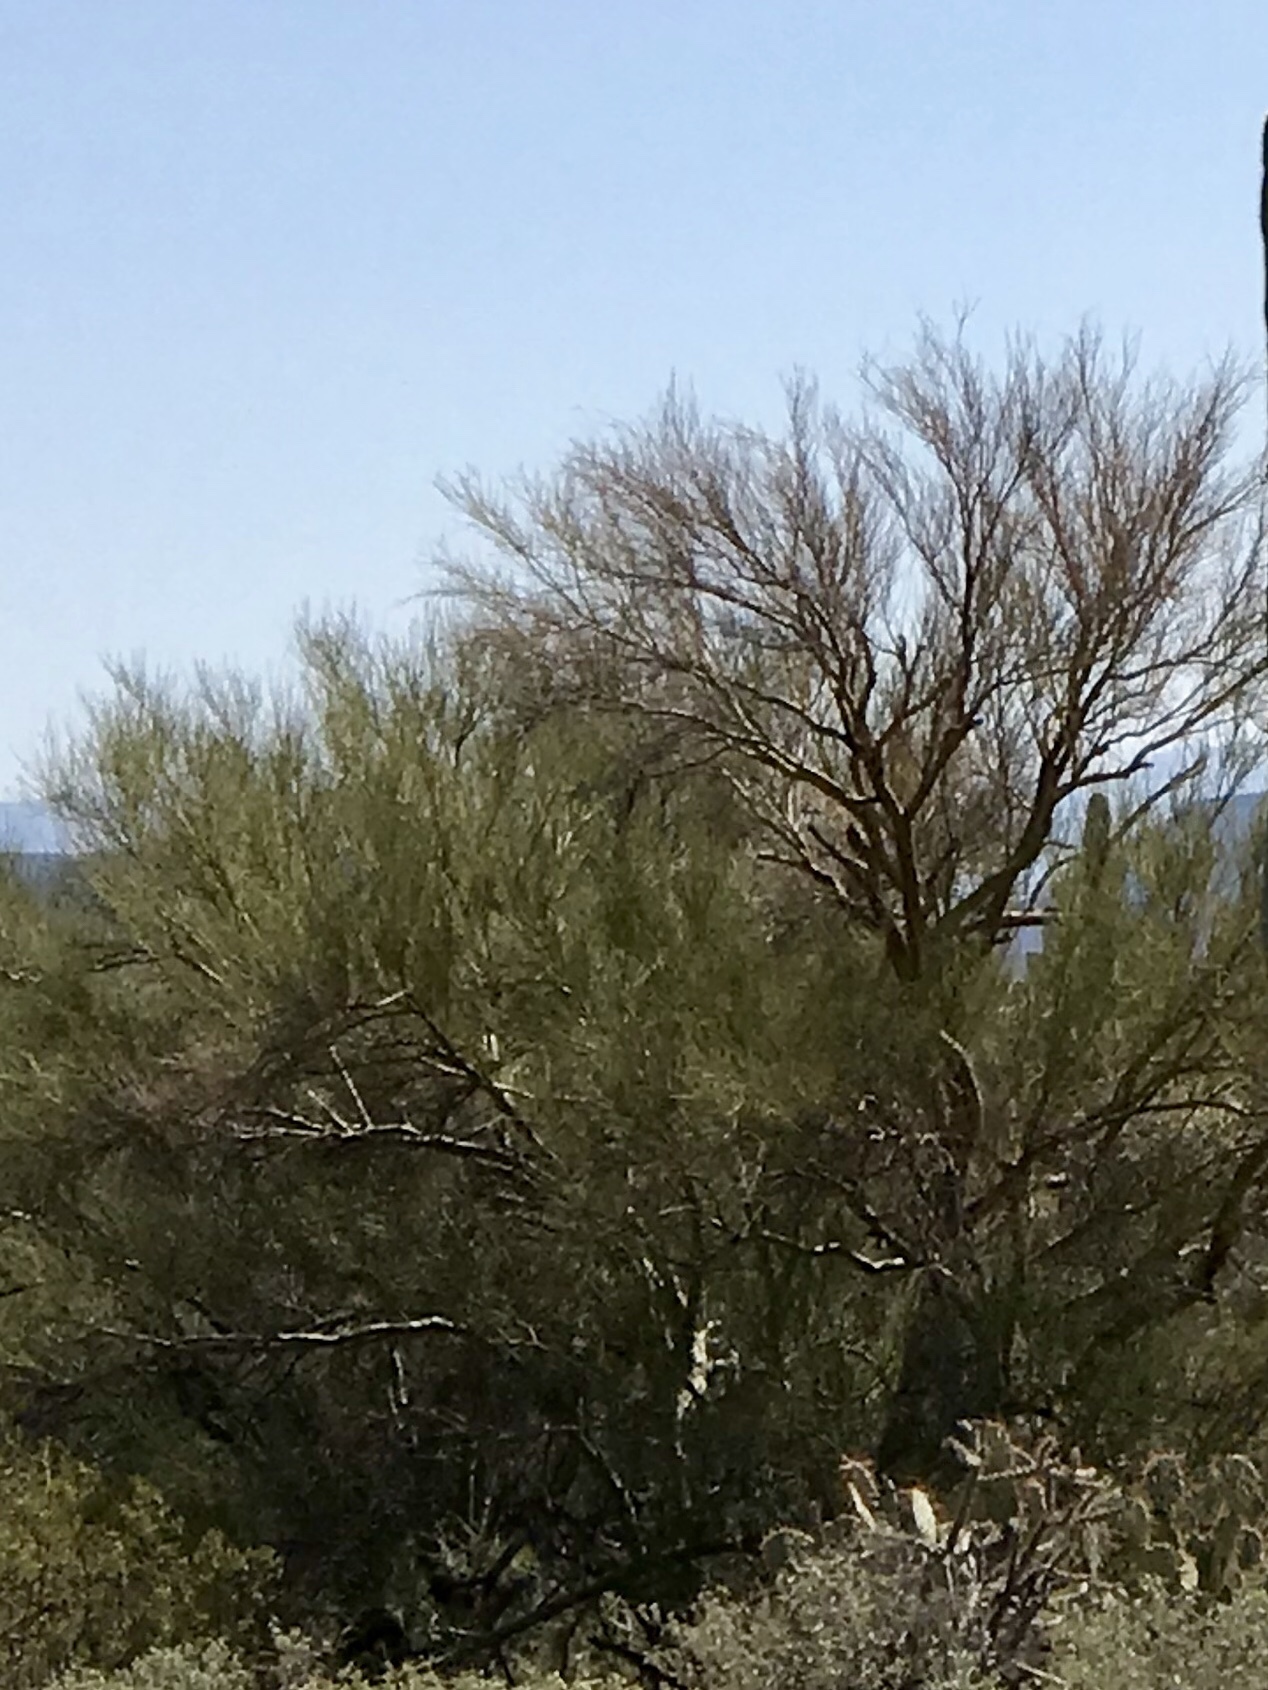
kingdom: Plantae
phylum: Tracheophyta
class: Magnoliopsida
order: Fabales
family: Fabaceae
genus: Parkinsonia
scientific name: Parkinsonia microphylla
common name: Yellow paloverde
